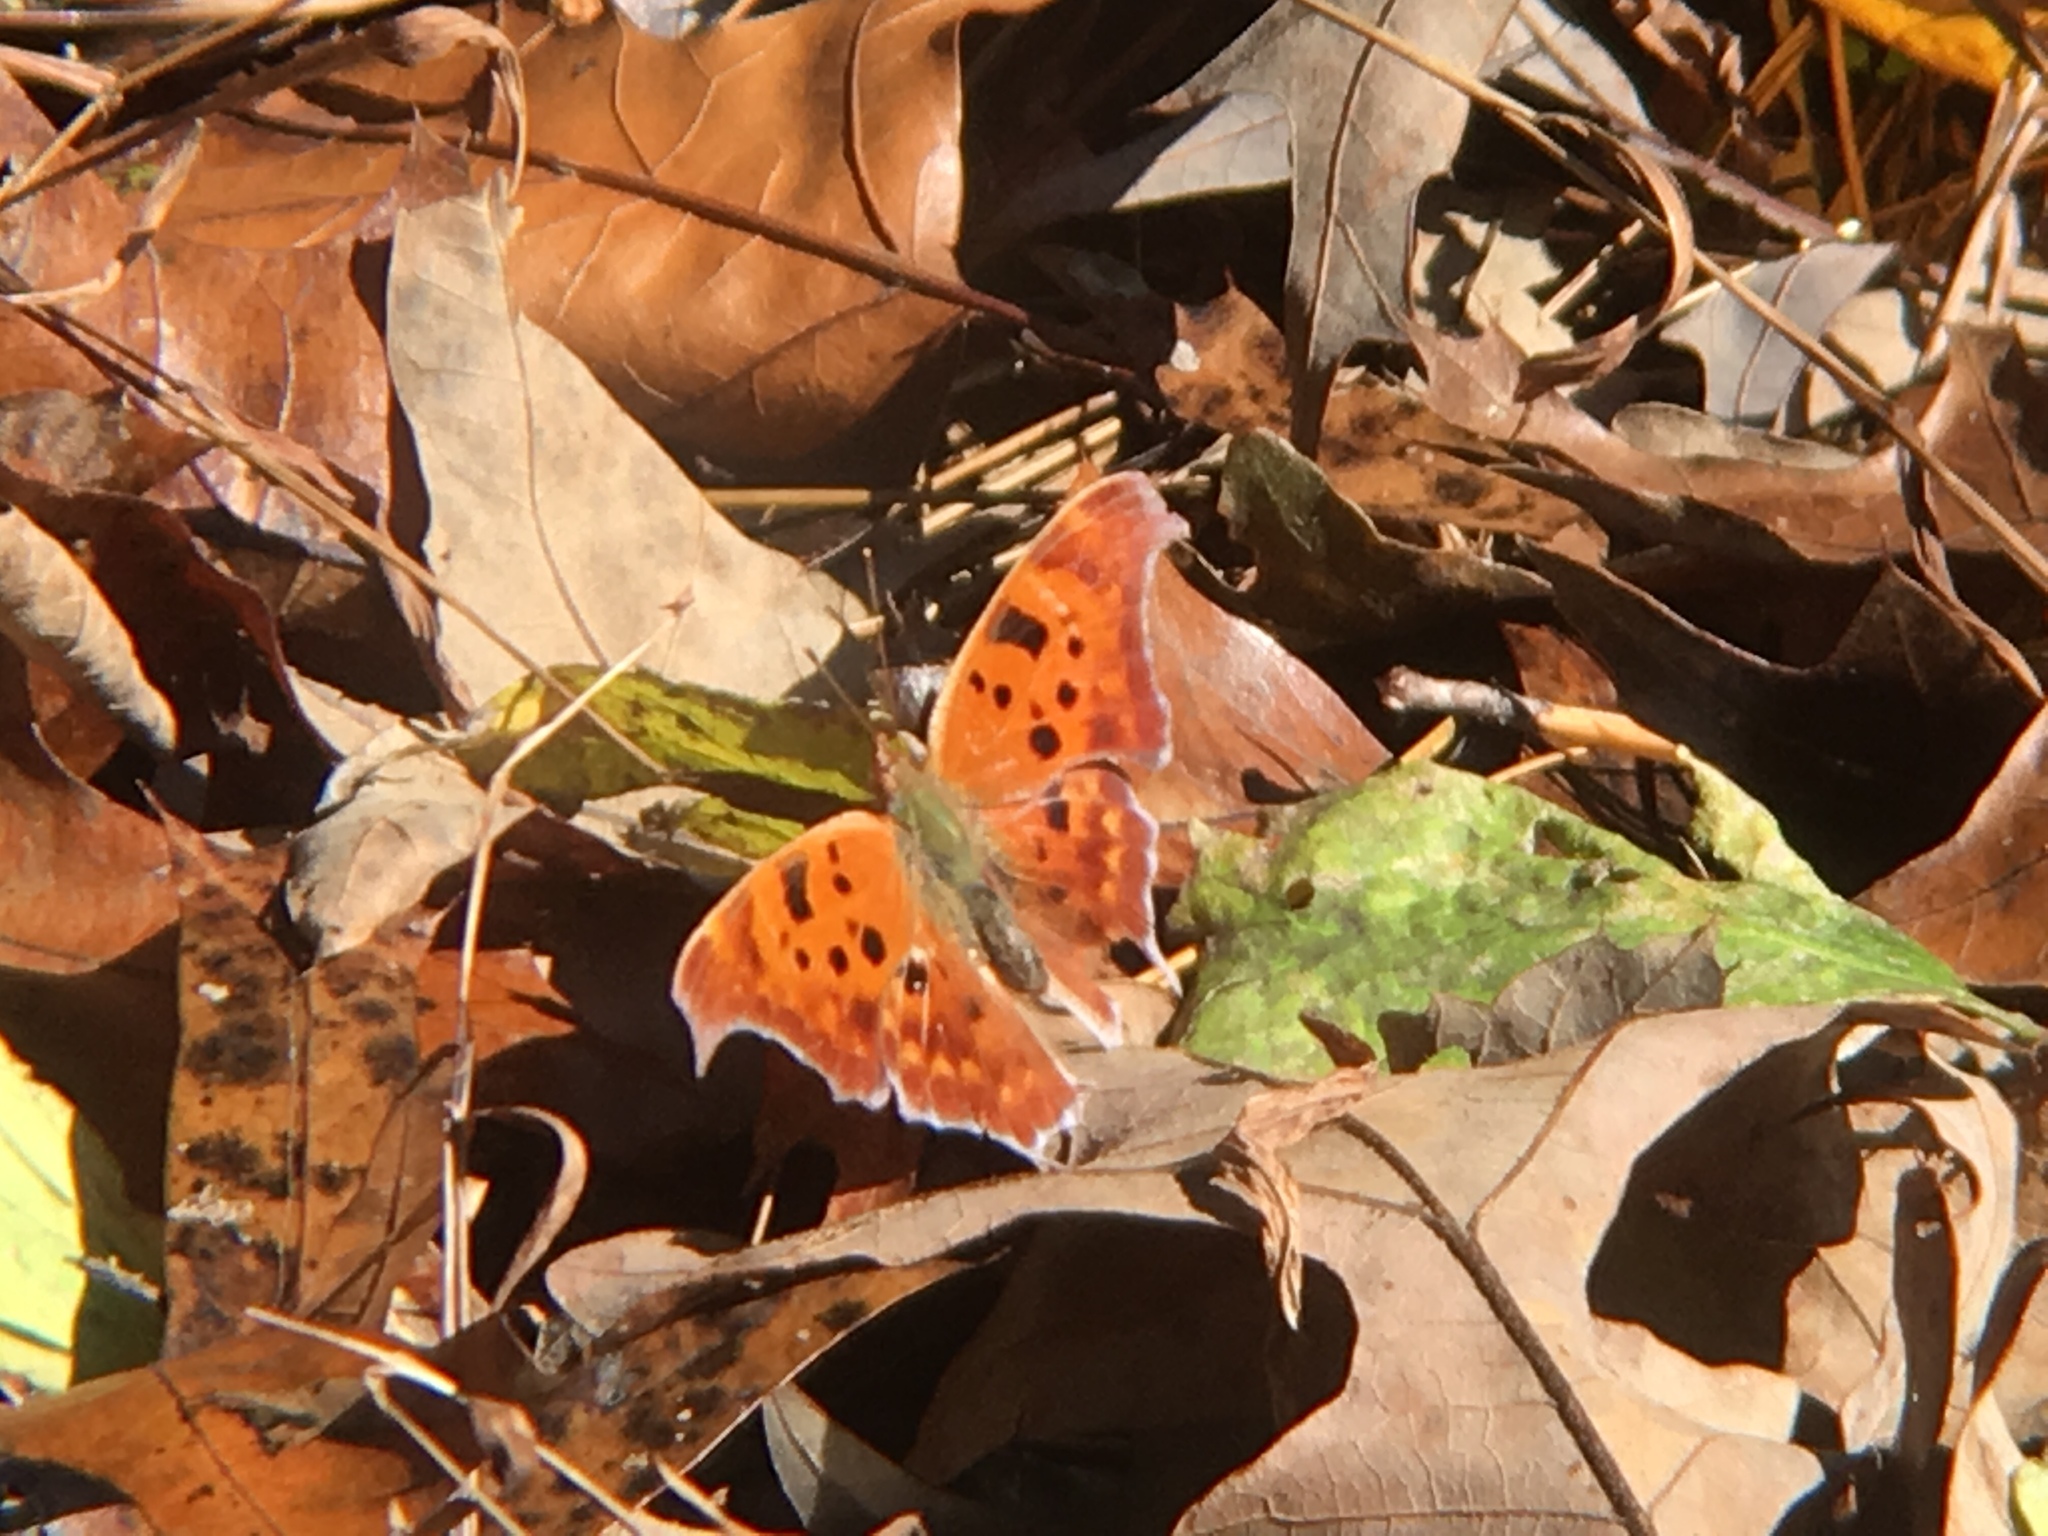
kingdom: Animalia
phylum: Arthropoda
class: Insecta
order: Lepidoptera
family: Nymphalidae
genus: Polygonia
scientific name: Polygonia interrogationis
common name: Question mark
